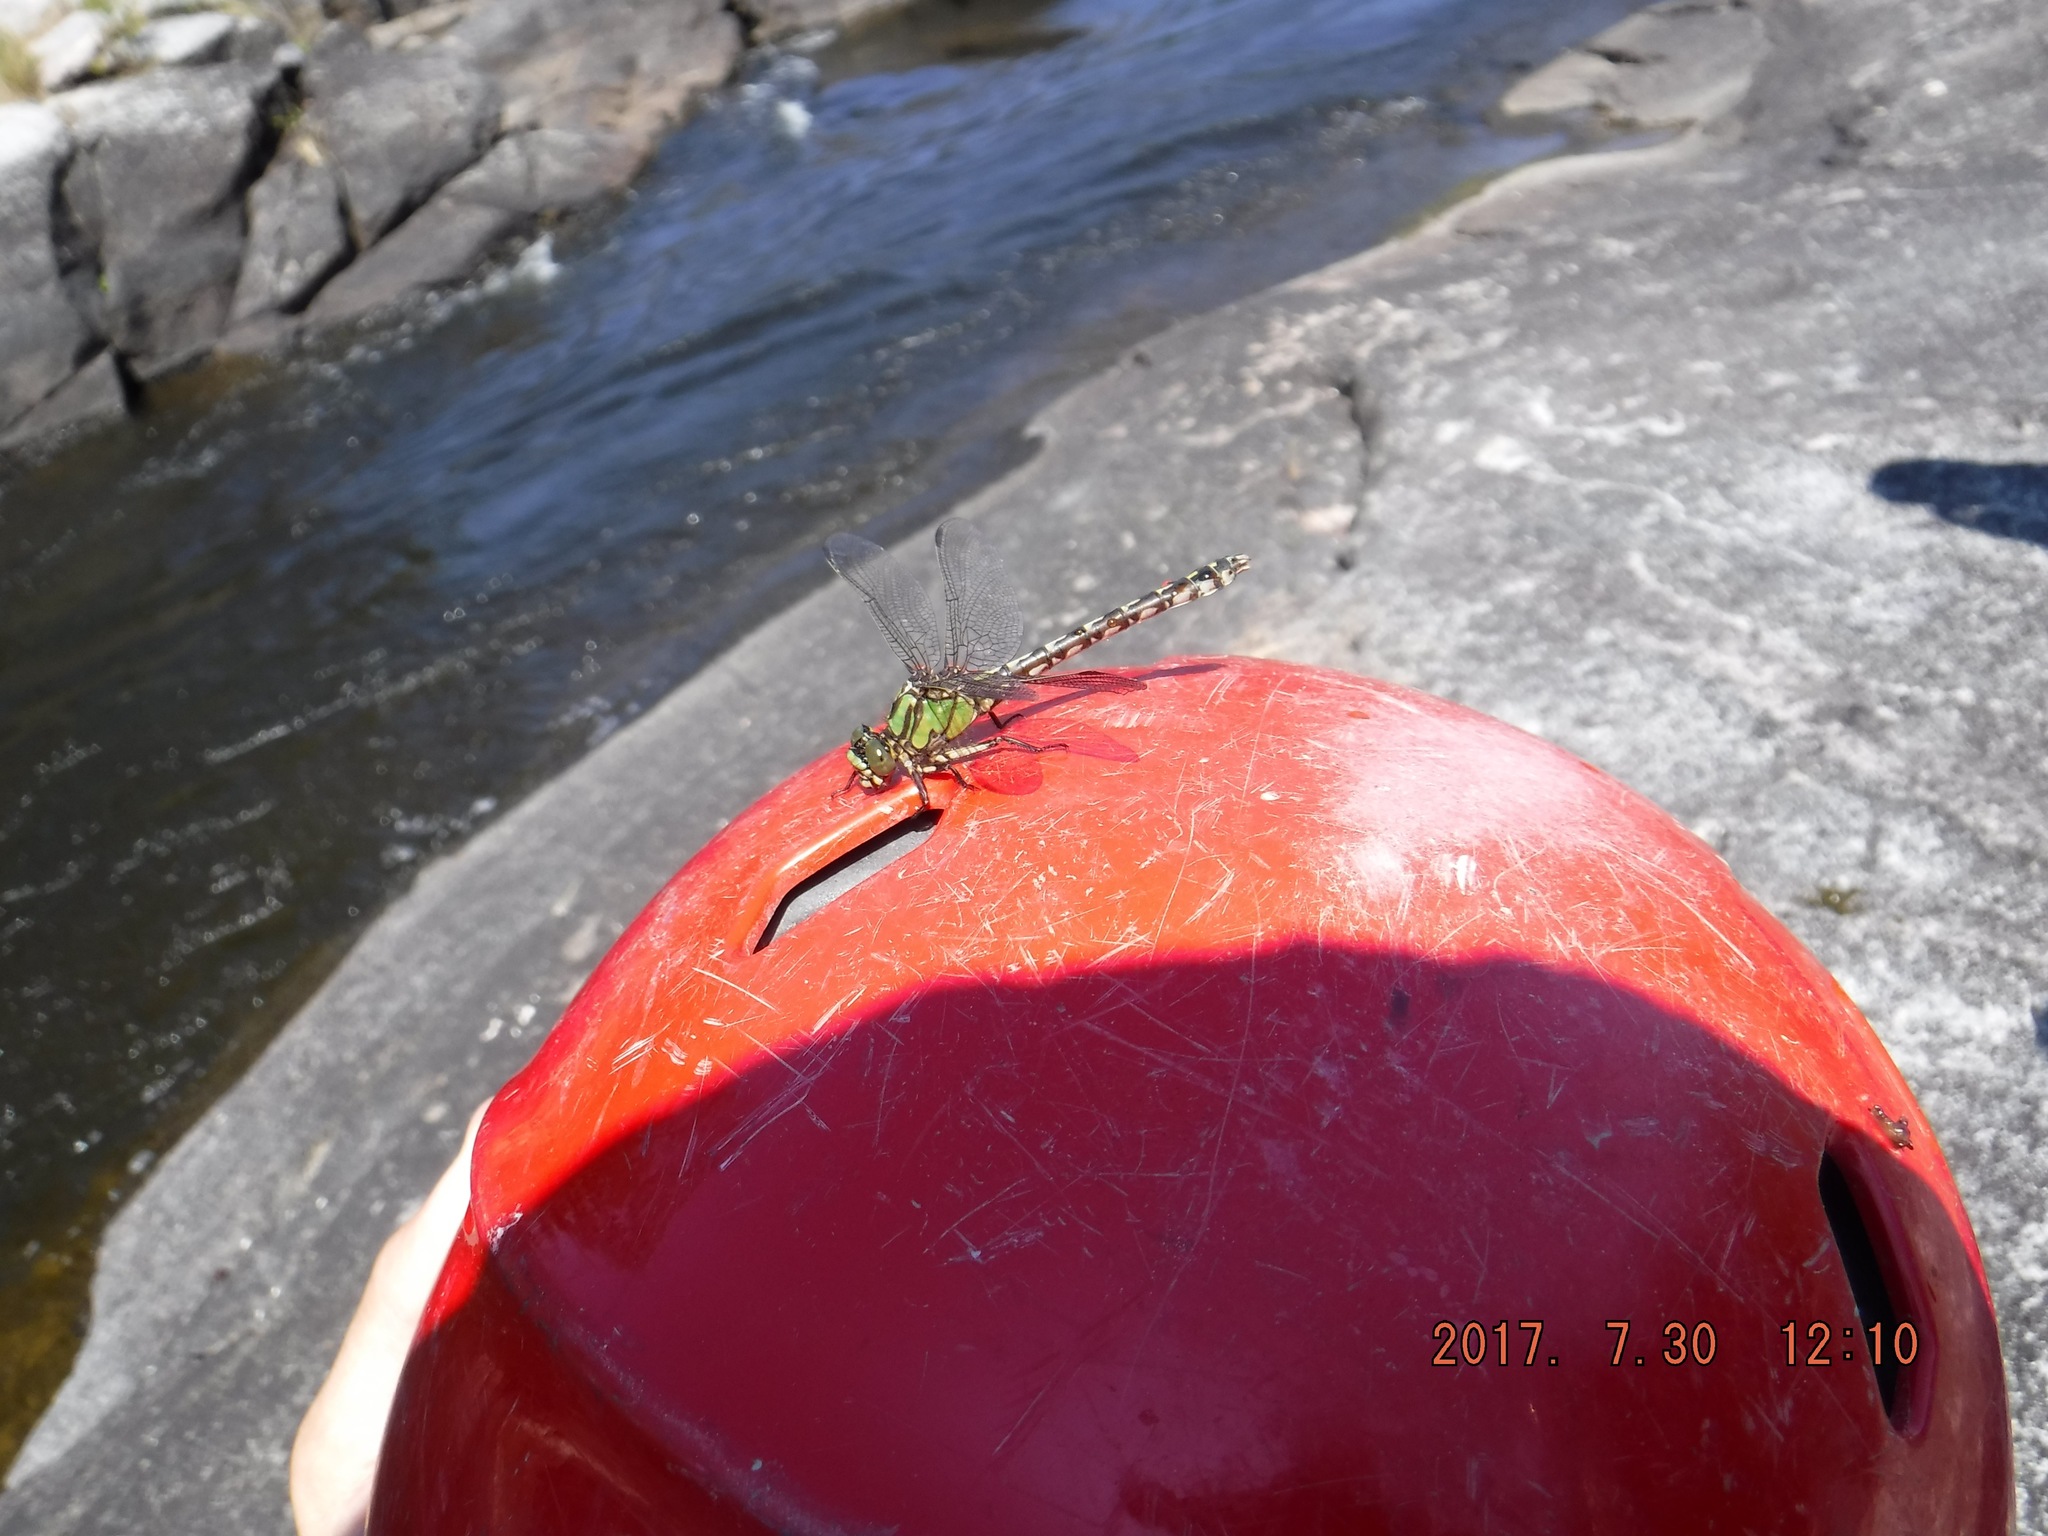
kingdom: Animalia
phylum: Arthropoda
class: Insecta
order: Odonata
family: Gomphidae
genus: Ophiogomphus
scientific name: Ophiogomphus colubrinus
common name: Boreal snaketail
